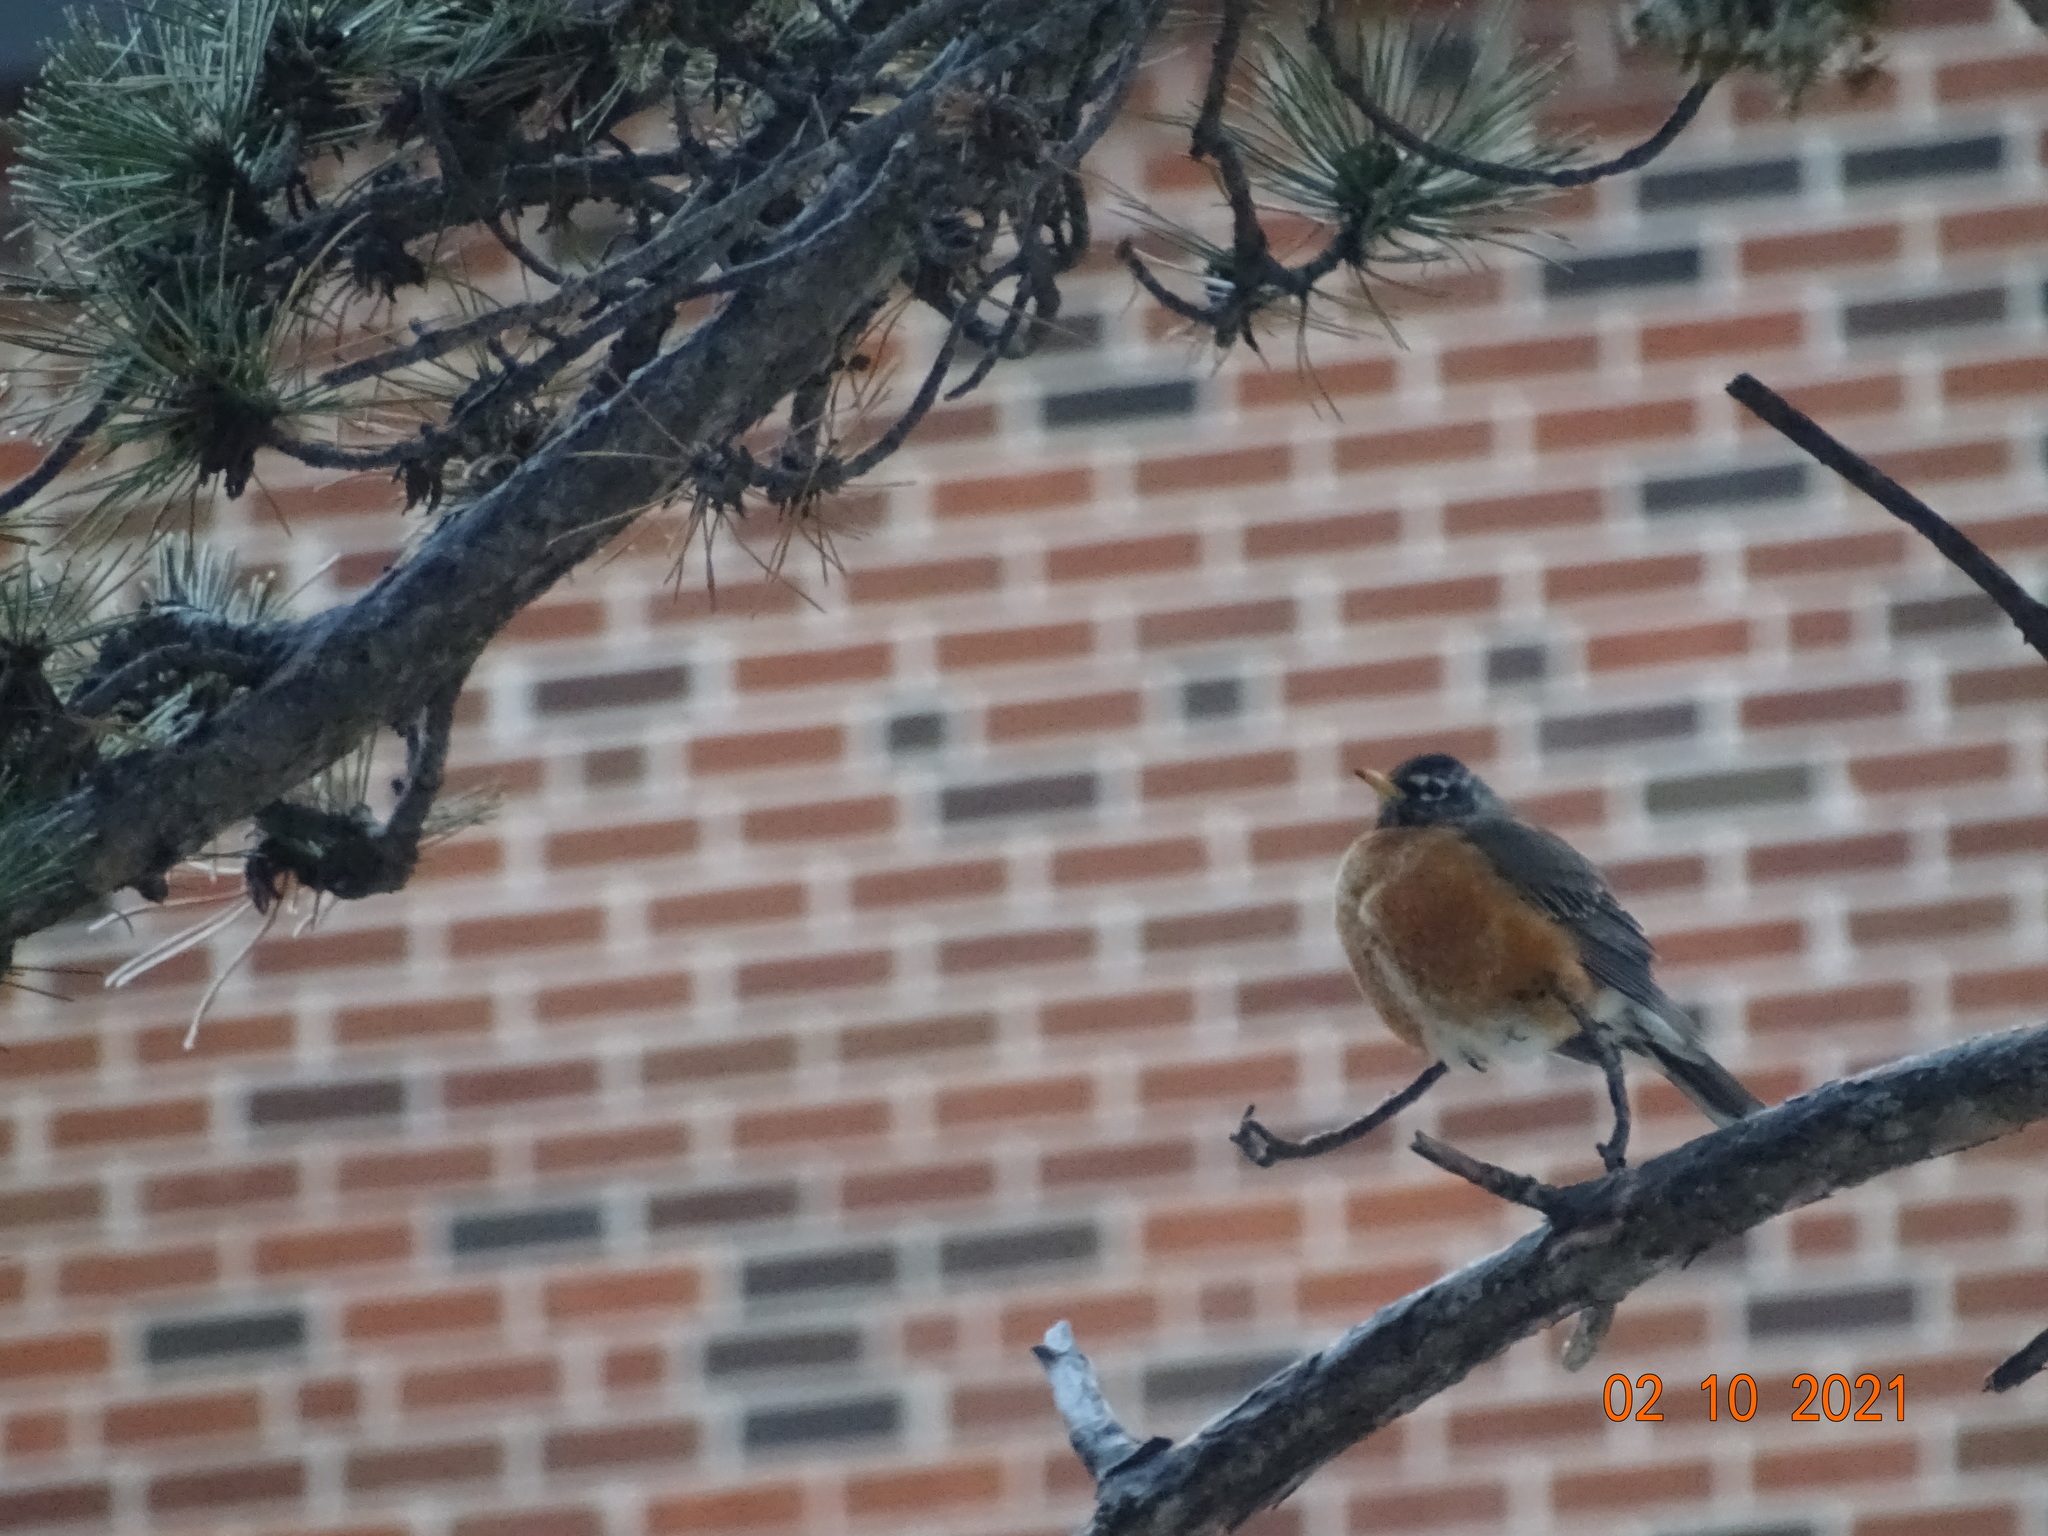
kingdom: Animalia
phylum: Chordata
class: Aves
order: Passeriformes
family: Turdidae
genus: Turdus
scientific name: Turdus migratorius
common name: American robin
